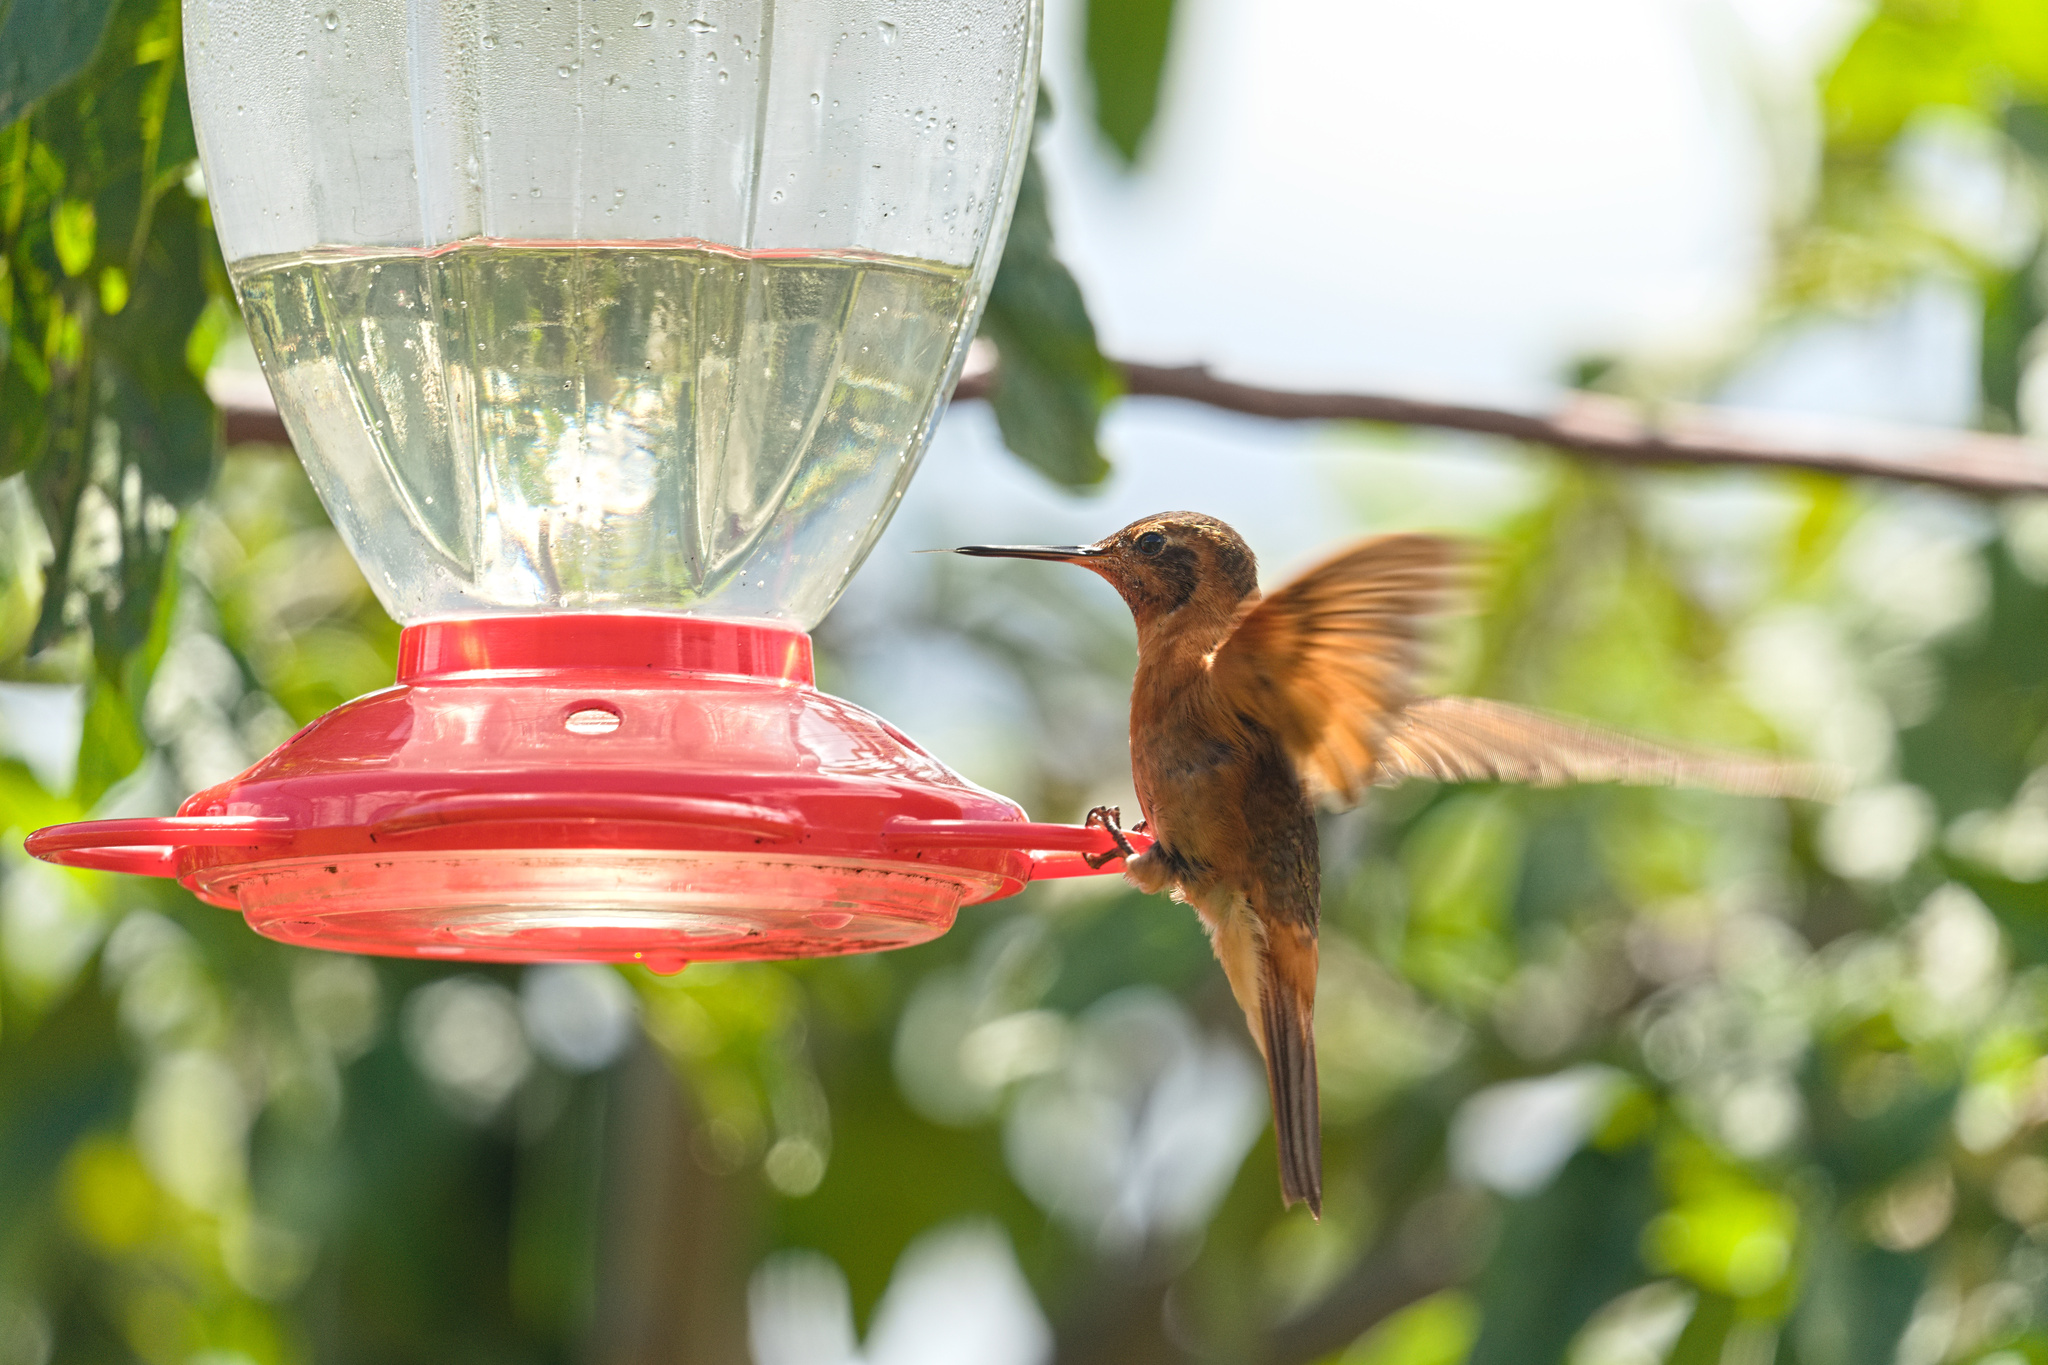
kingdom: Animalia
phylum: Chordata
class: Aves
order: Apodiformes
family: Trochilidae
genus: Aglaeactis
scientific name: Aglaeactis cupripennis
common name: Shining sunbeam
